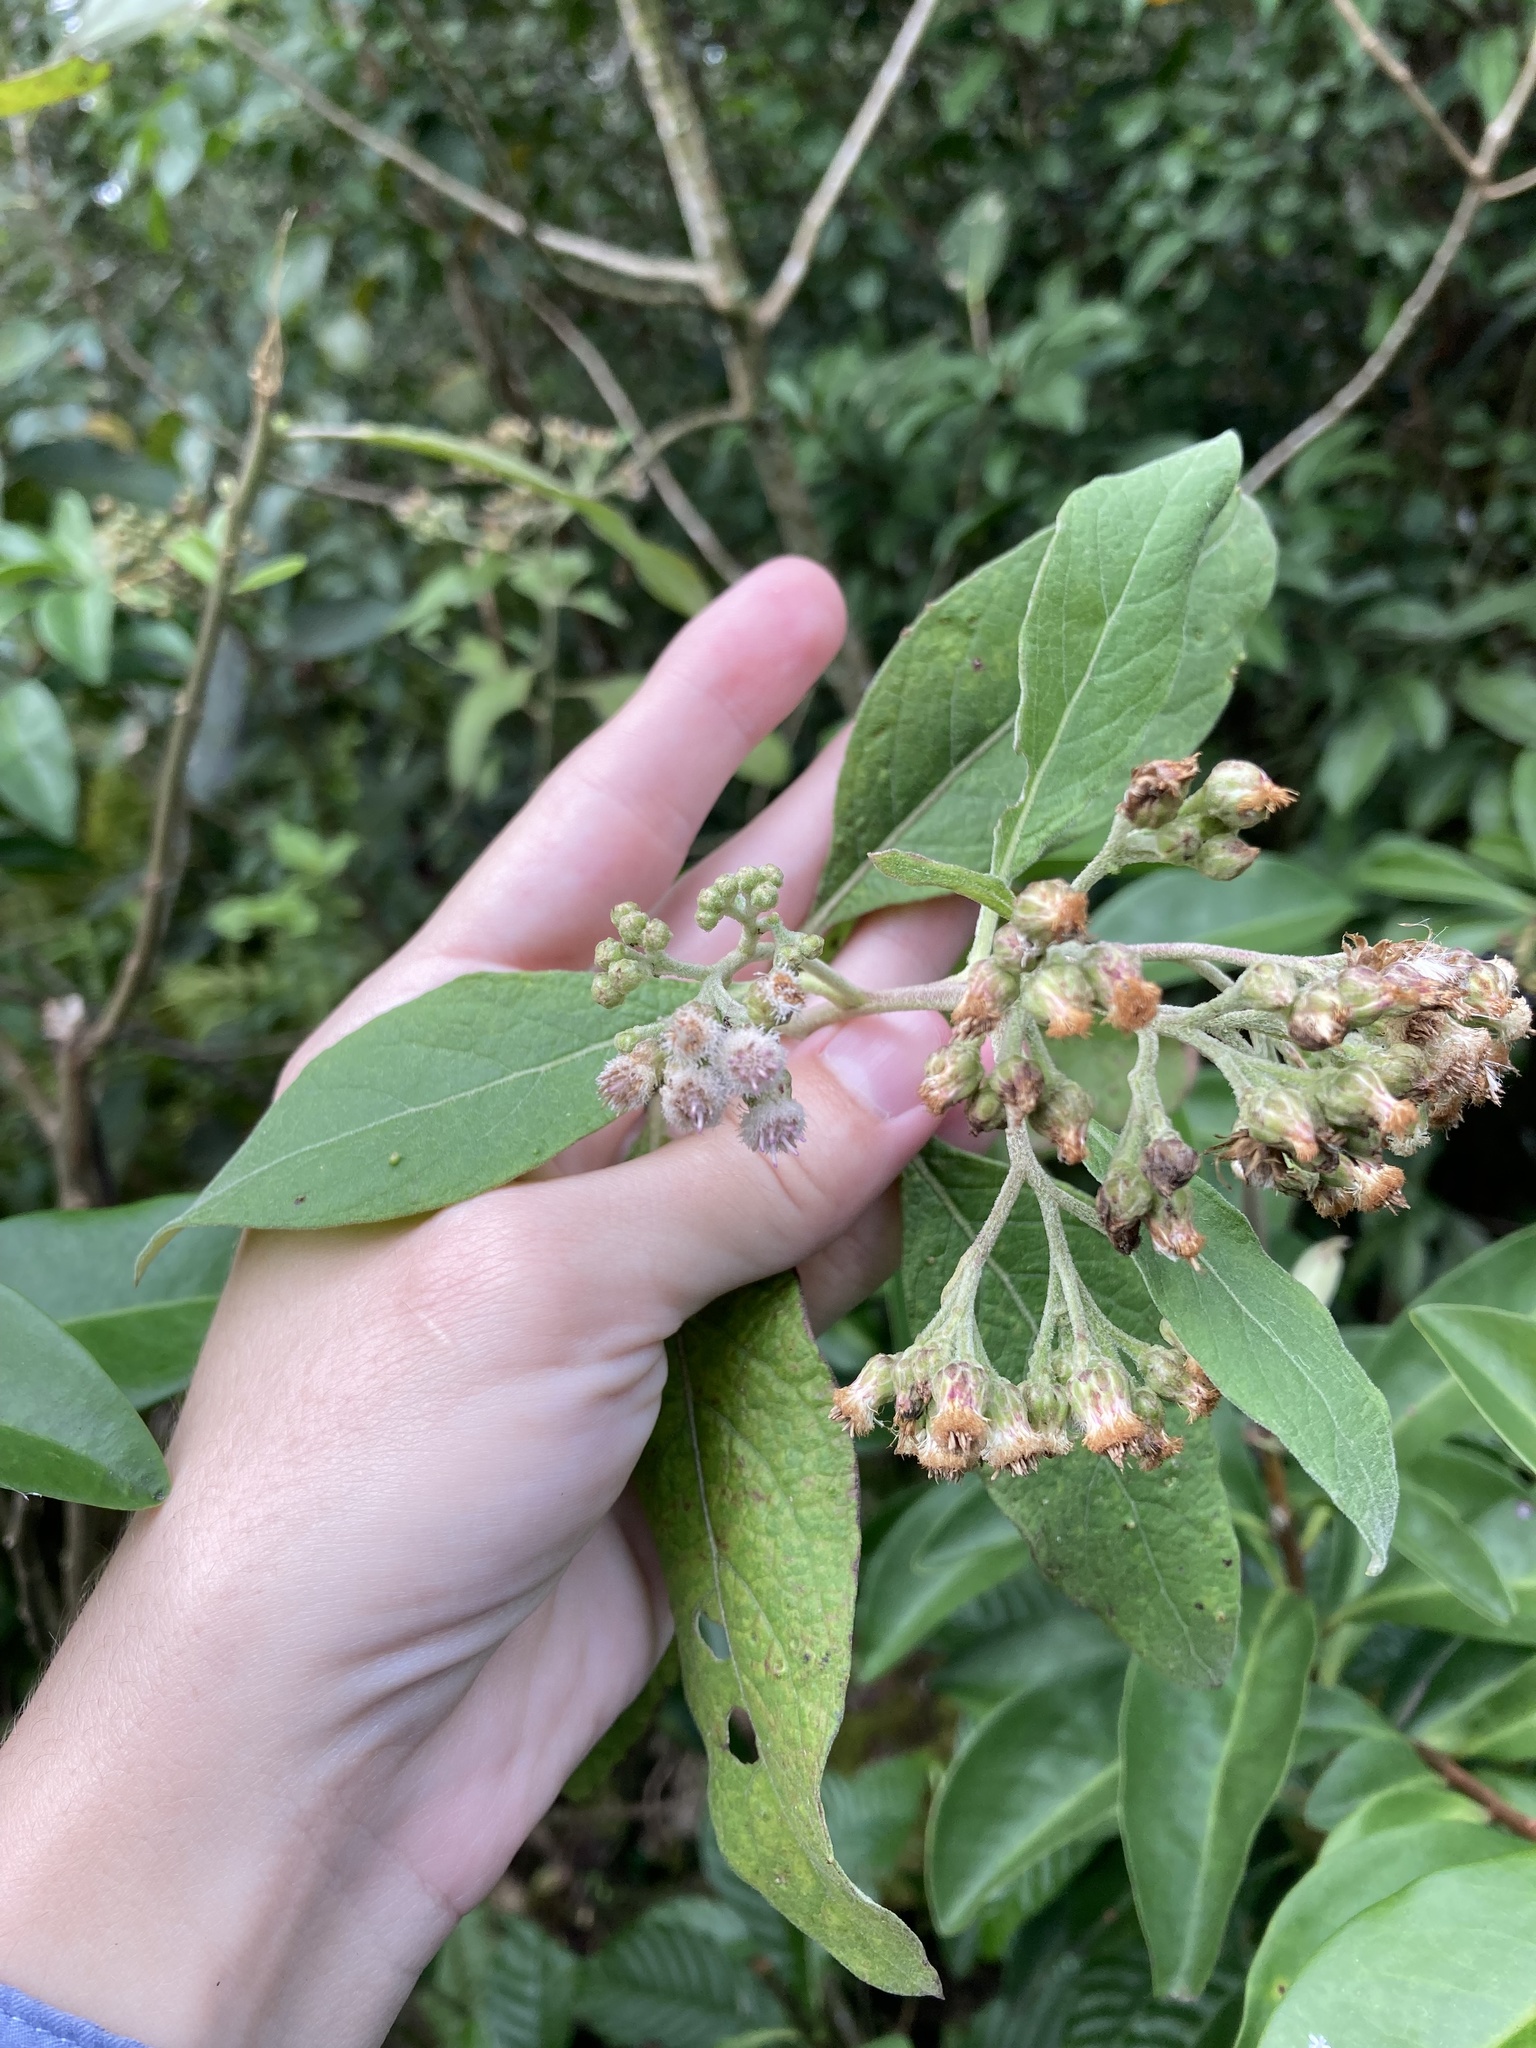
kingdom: Plantae
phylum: Tracheophyta
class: Magnoliopsida
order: Asterales
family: Asteraceae
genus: Pluchea
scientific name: Pluchea carolinensis
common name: Marsh fleabane
